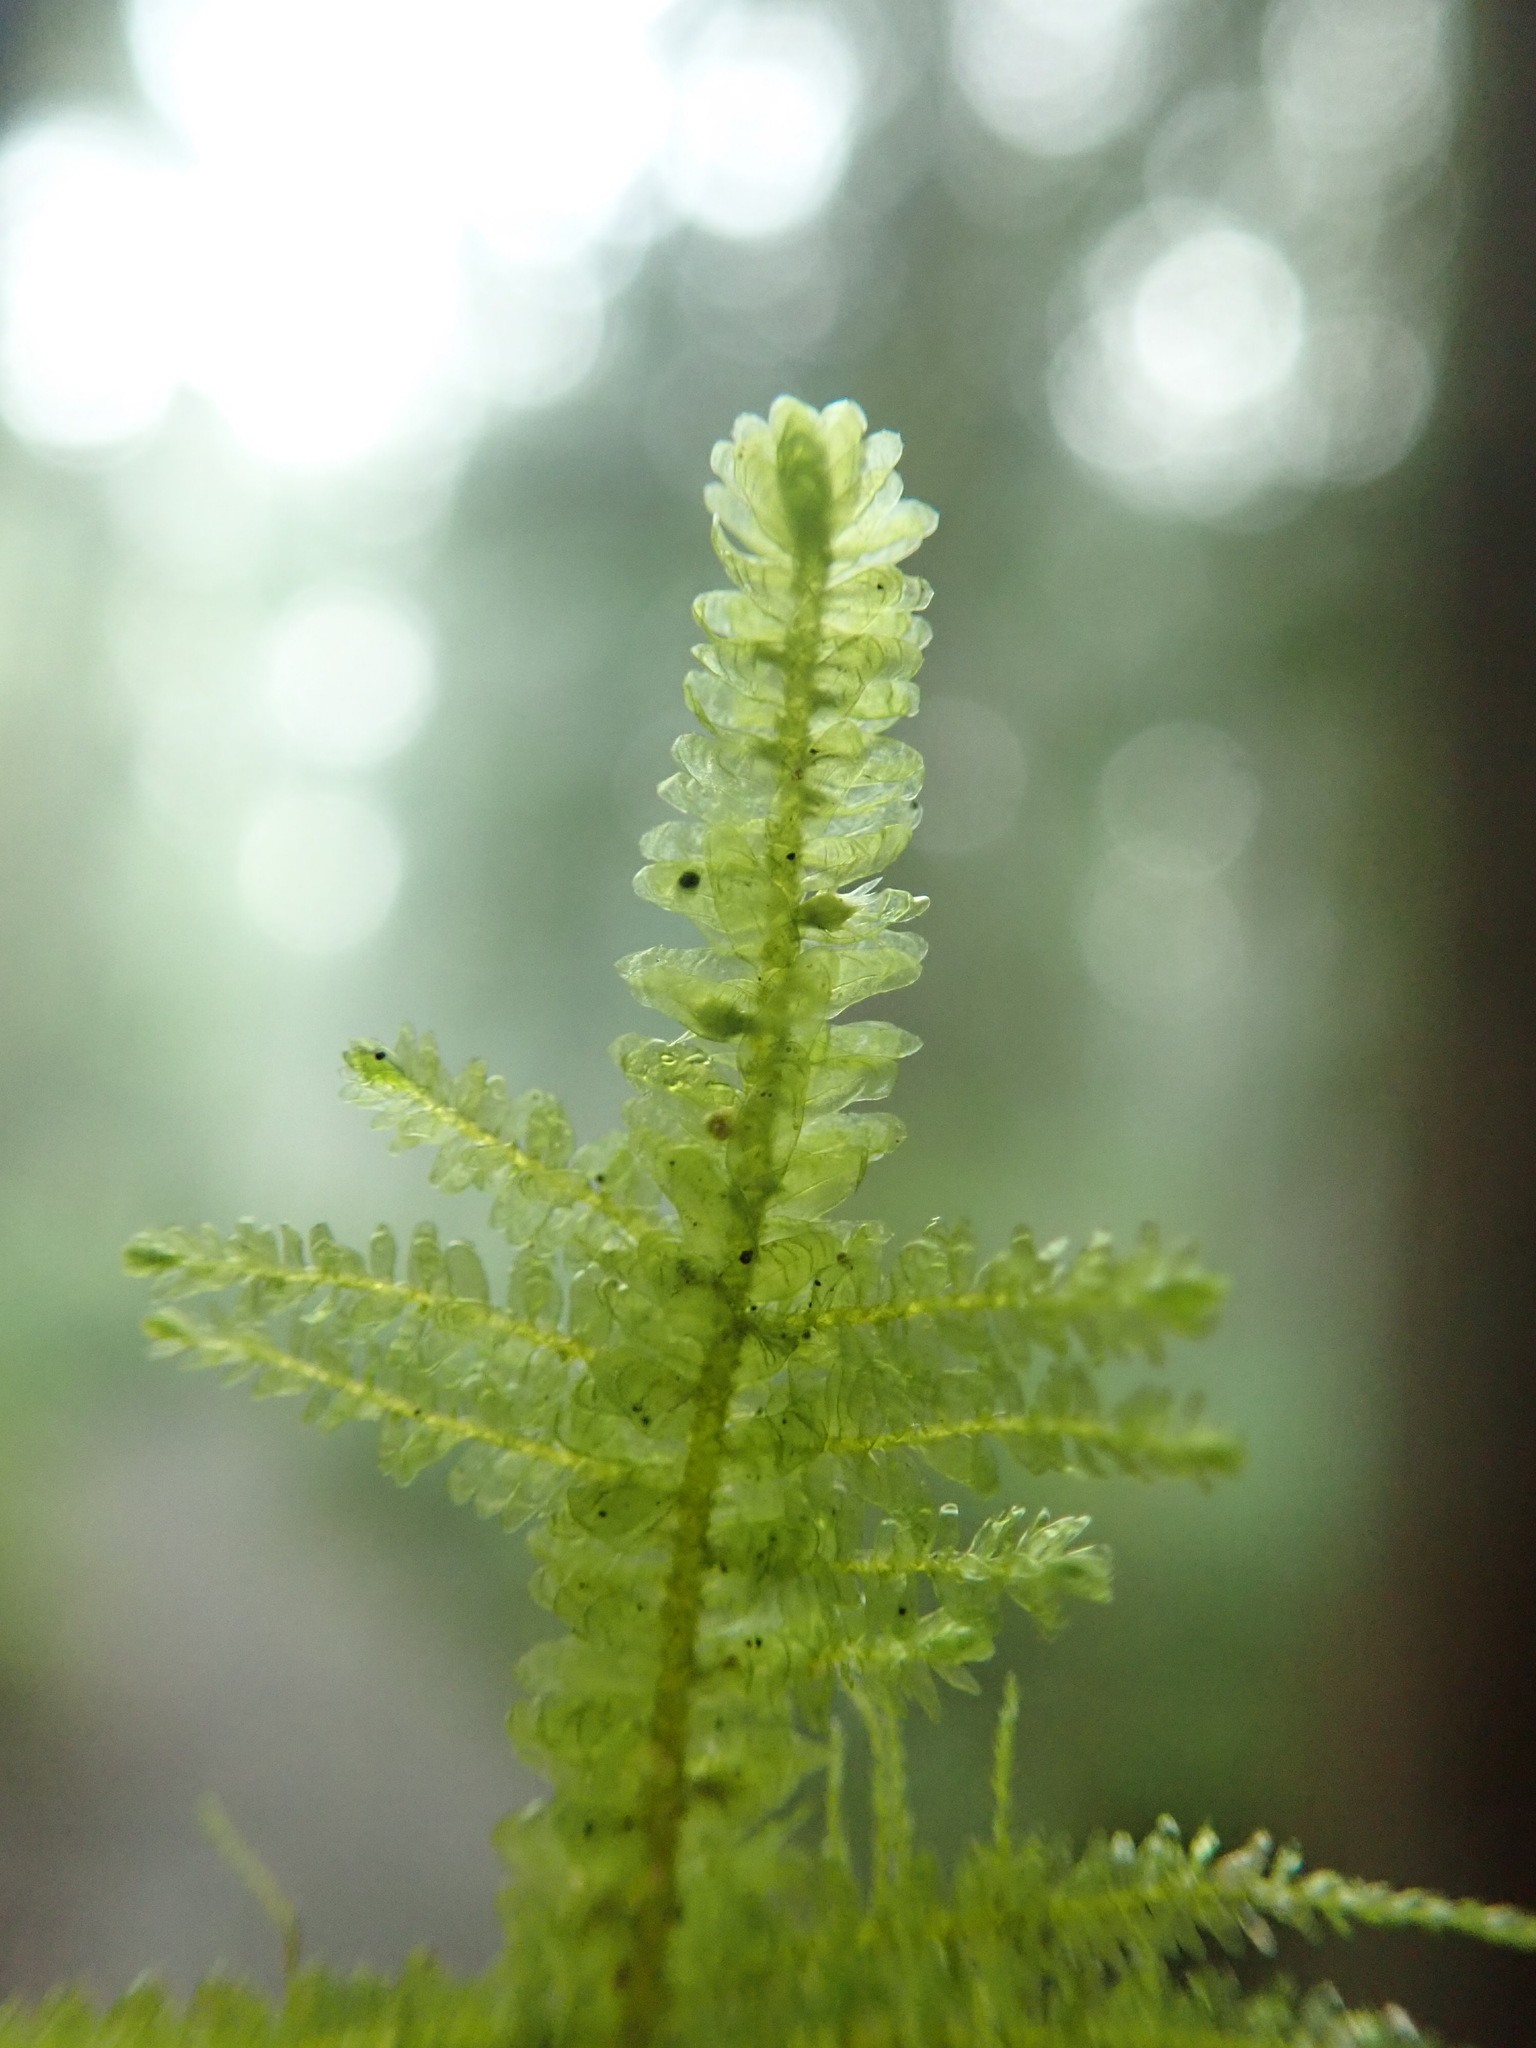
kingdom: Plantae
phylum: Bryophyta
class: Bryopsida
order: Hypnales
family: Neckeraceae
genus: Metaneckera
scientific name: Metaneckera menziesii
